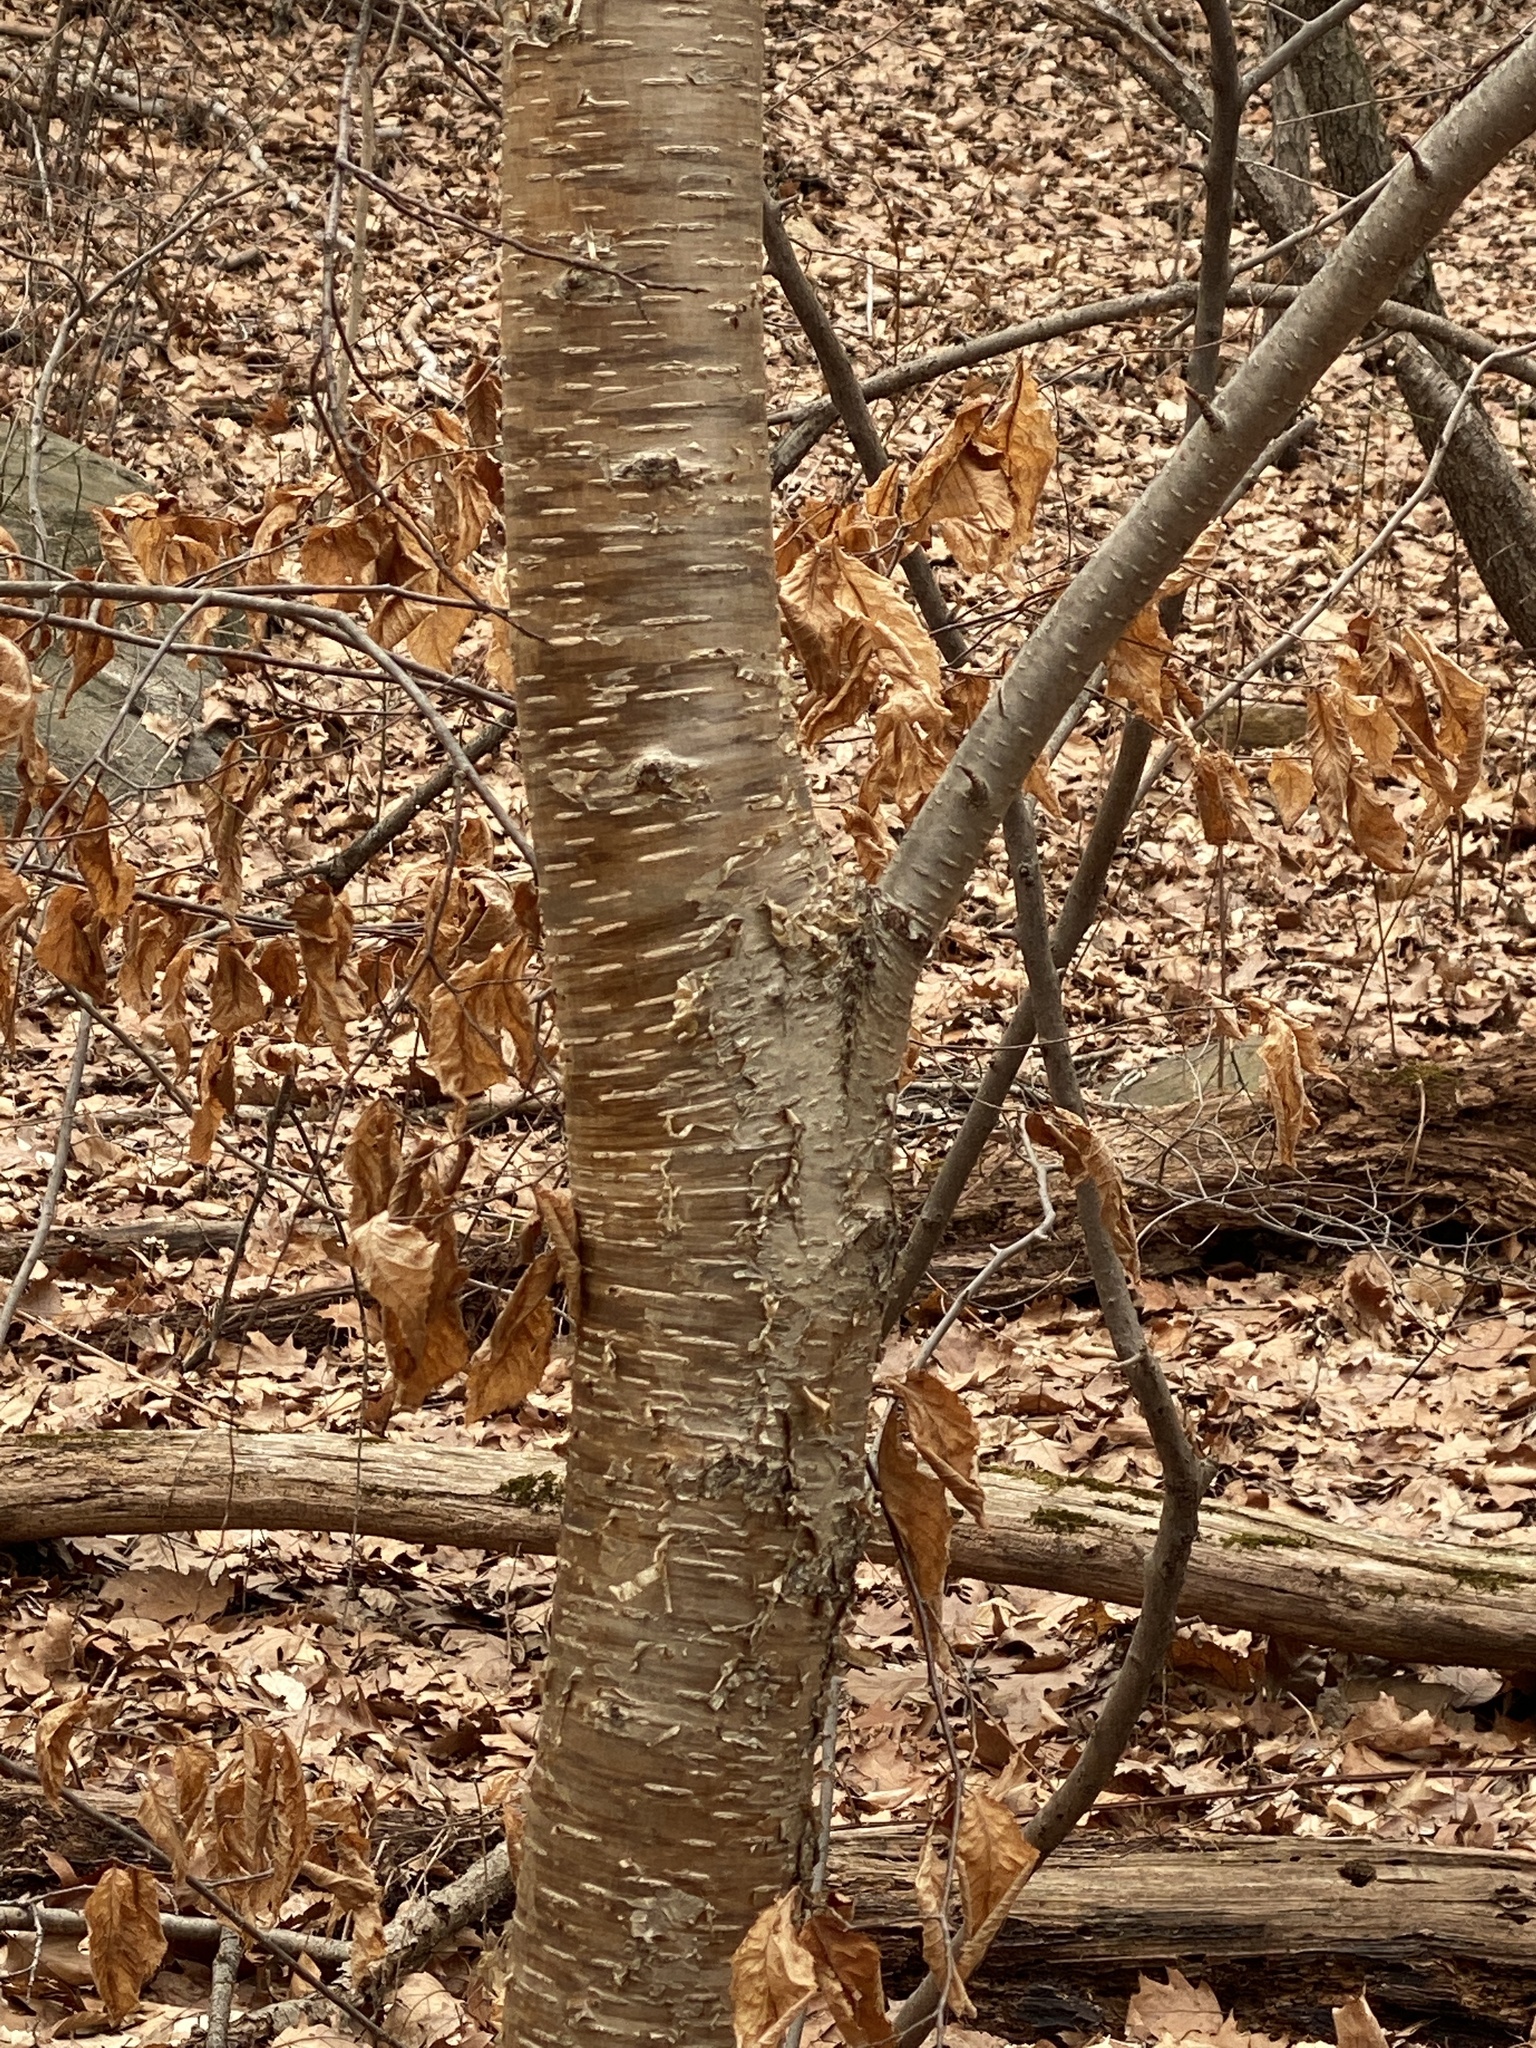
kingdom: Plantae
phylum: Tracheophyta
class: Magnoliopsida
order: Fagales
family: Betulaceae
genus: Betula
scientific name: Betula alleghaniensis
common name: Yellow birch
